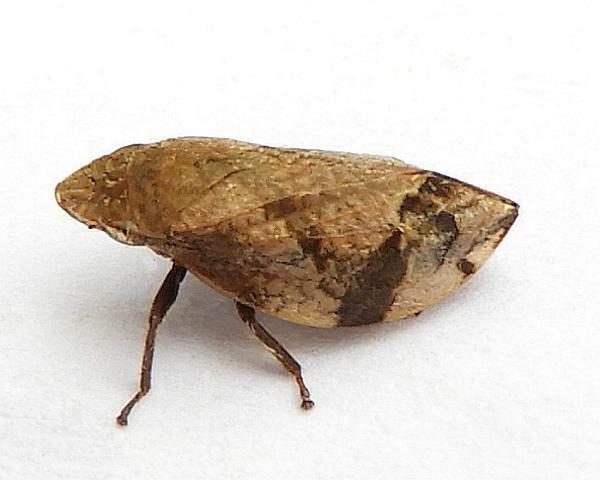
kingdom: Animalia
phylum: Arthropoda
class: Insecta
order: Hemiptera
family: Aphrophoridae
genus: Lepyronia
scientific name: Lepyronia quadrangularis
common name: Diamond-backed spittlebug
